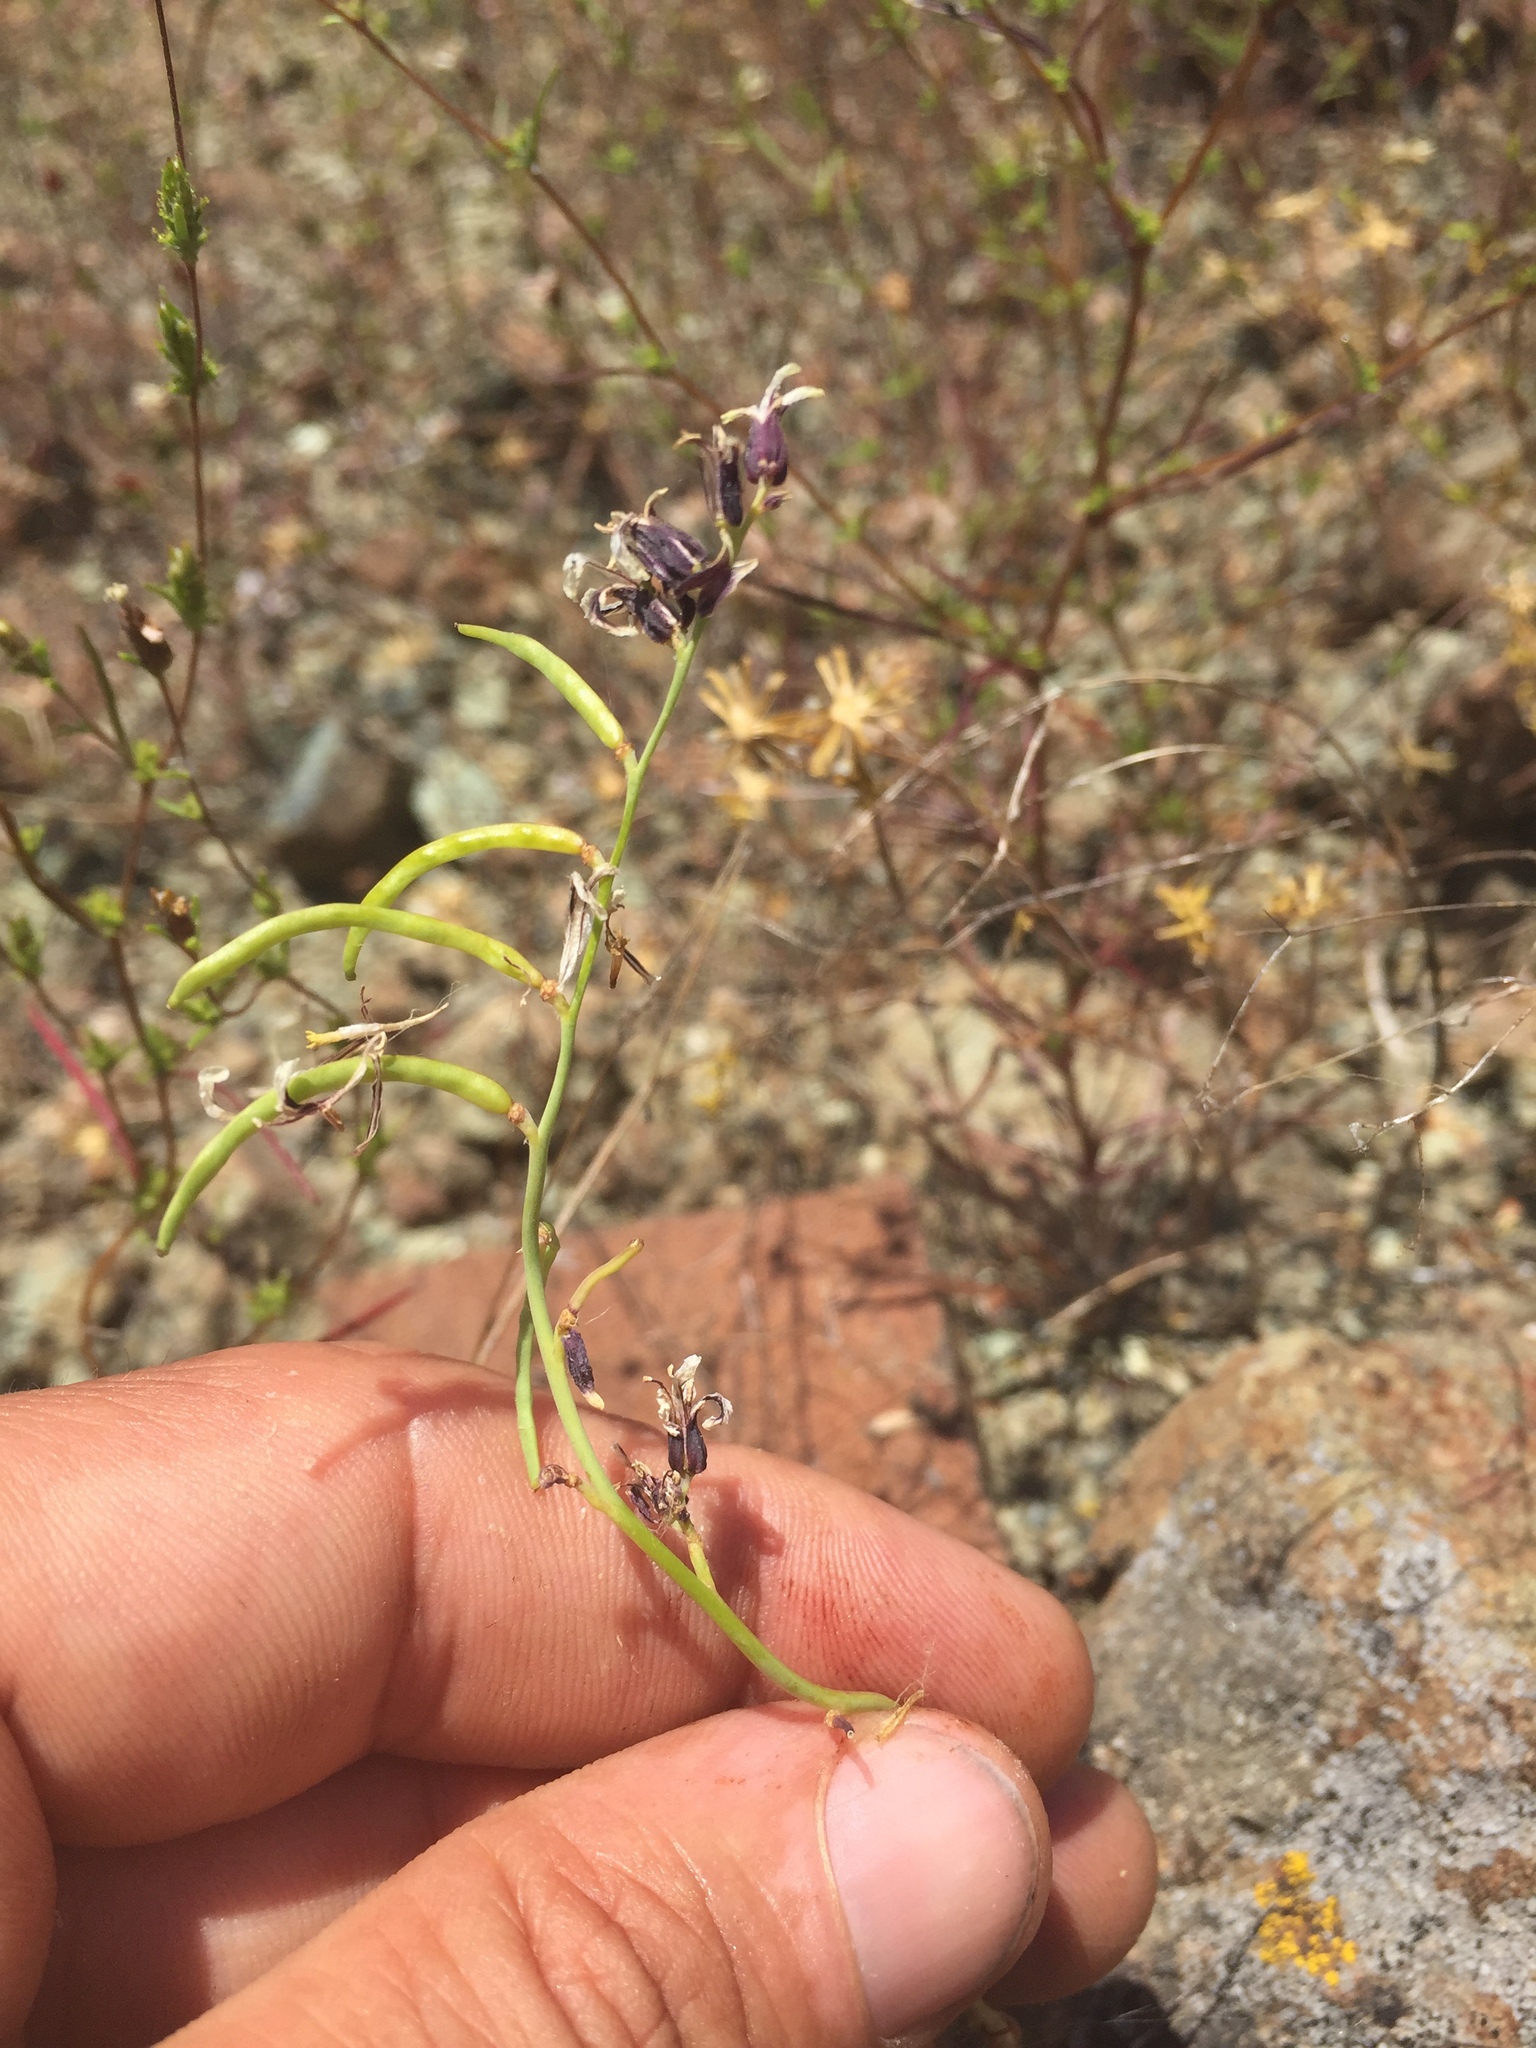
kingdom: Plantae
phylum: Tracheophyta
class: Magnoliopsida
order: Brassicales
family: Brassicaceae
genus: Streptanthus
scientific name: Streptanthus breweri
